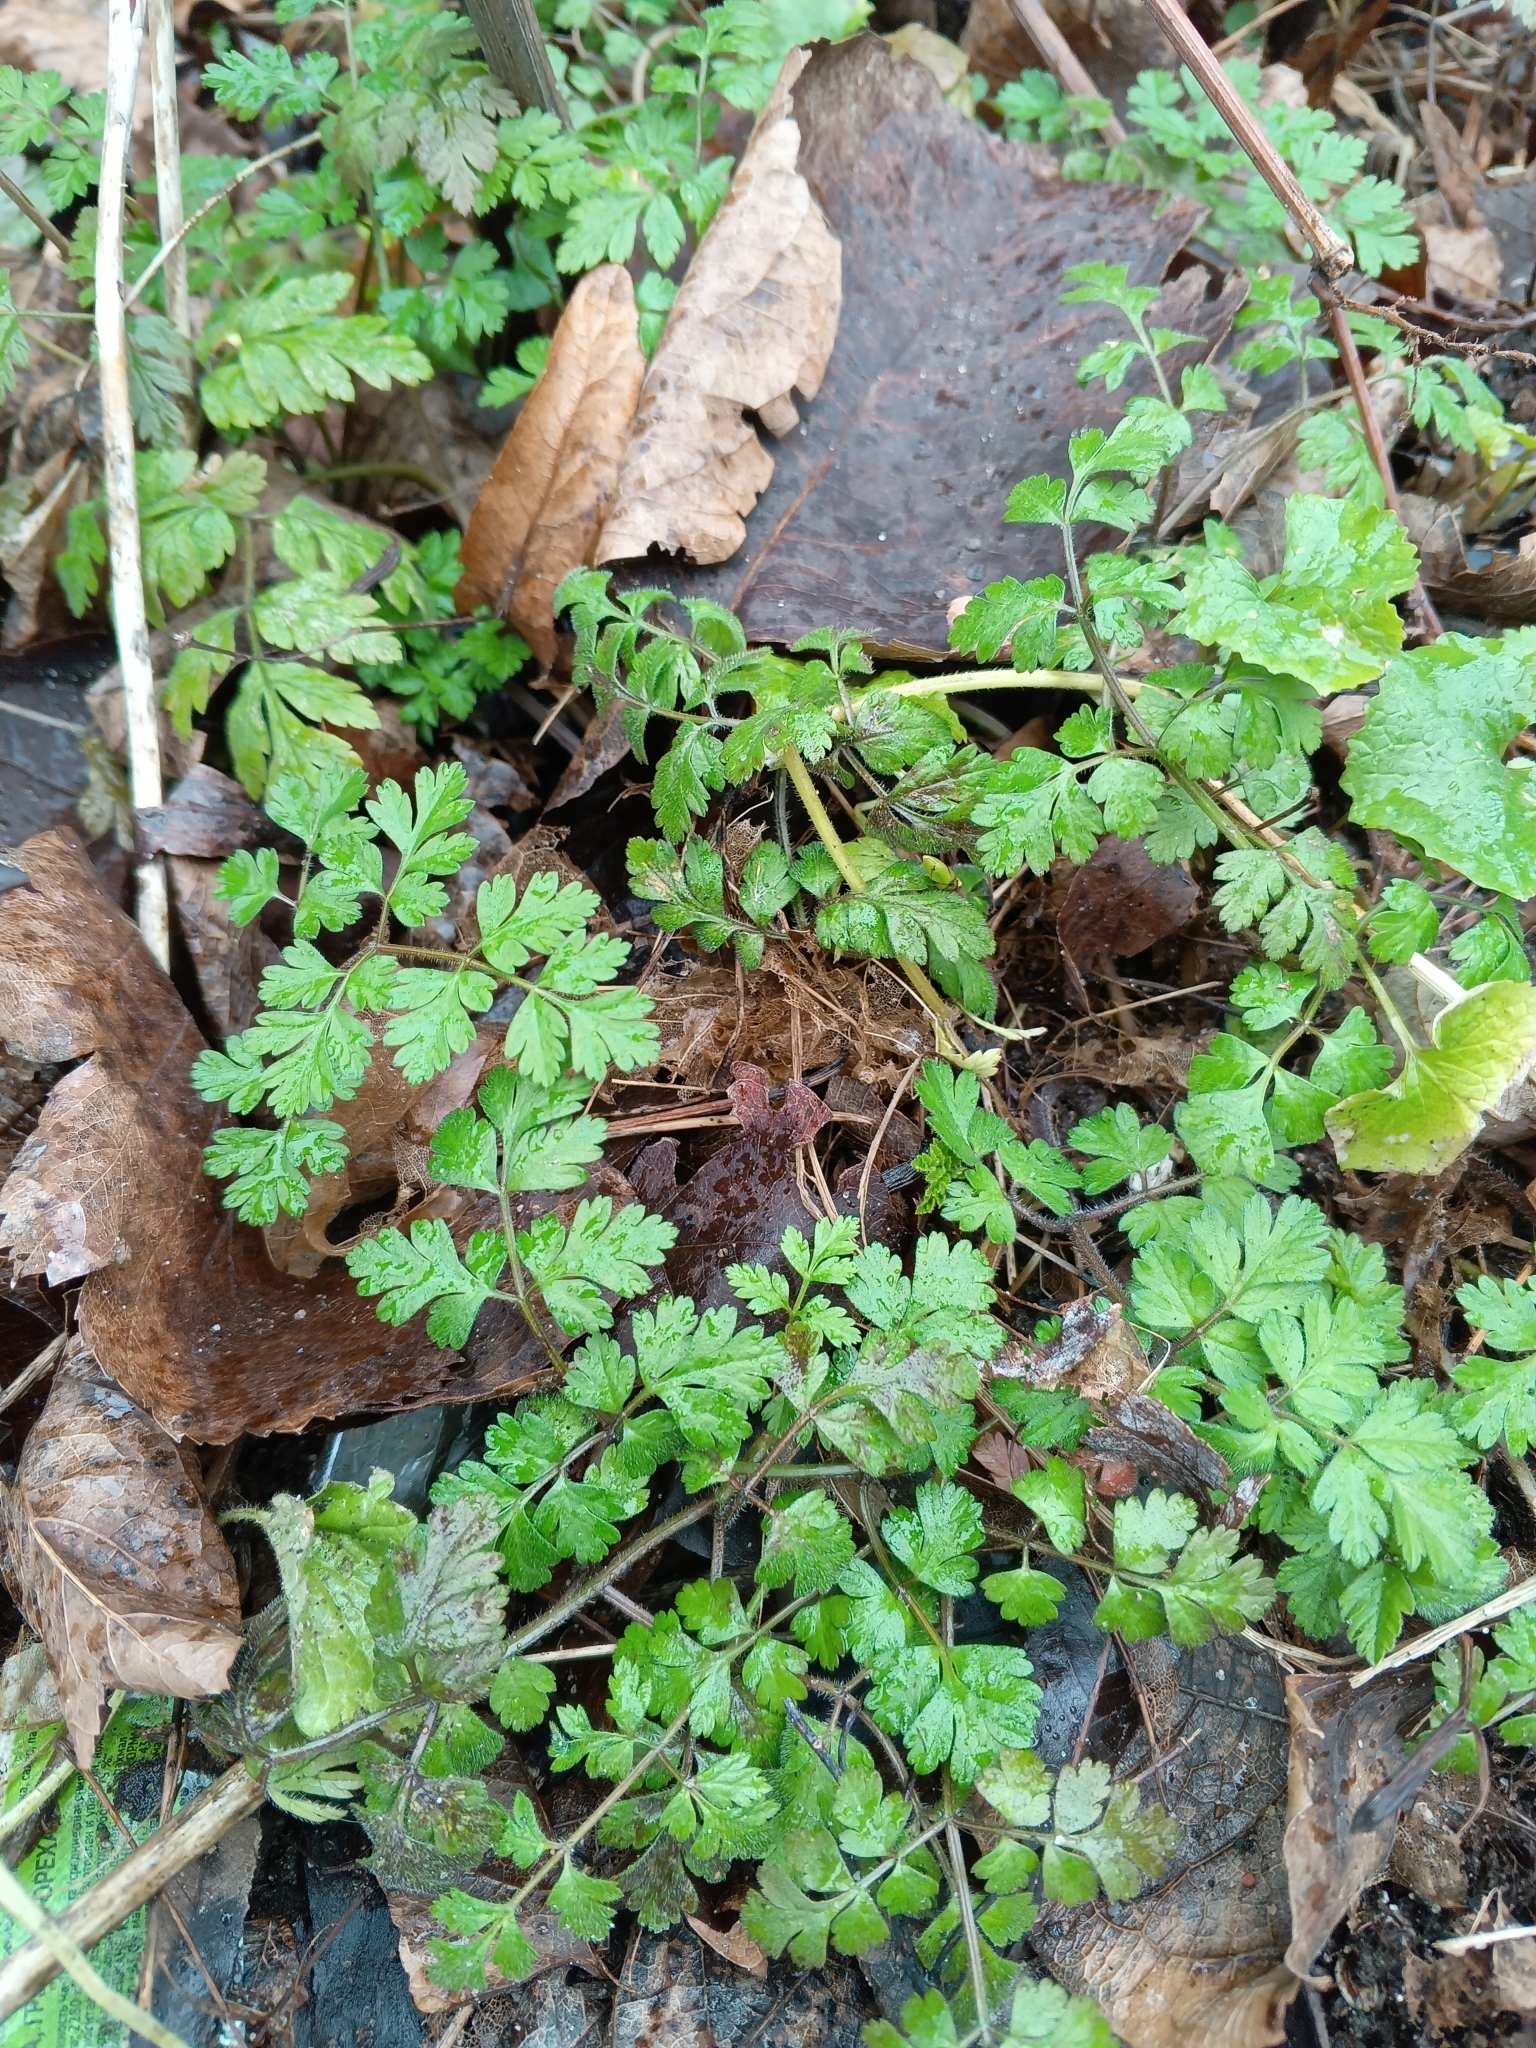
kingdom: Plantae
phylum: Tracheophyta
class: Magnoliopsida
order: Apiales
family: Apiaceae
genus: Chaerophyllum
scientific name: Chaerophyllum temulum
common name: Rough chervil
